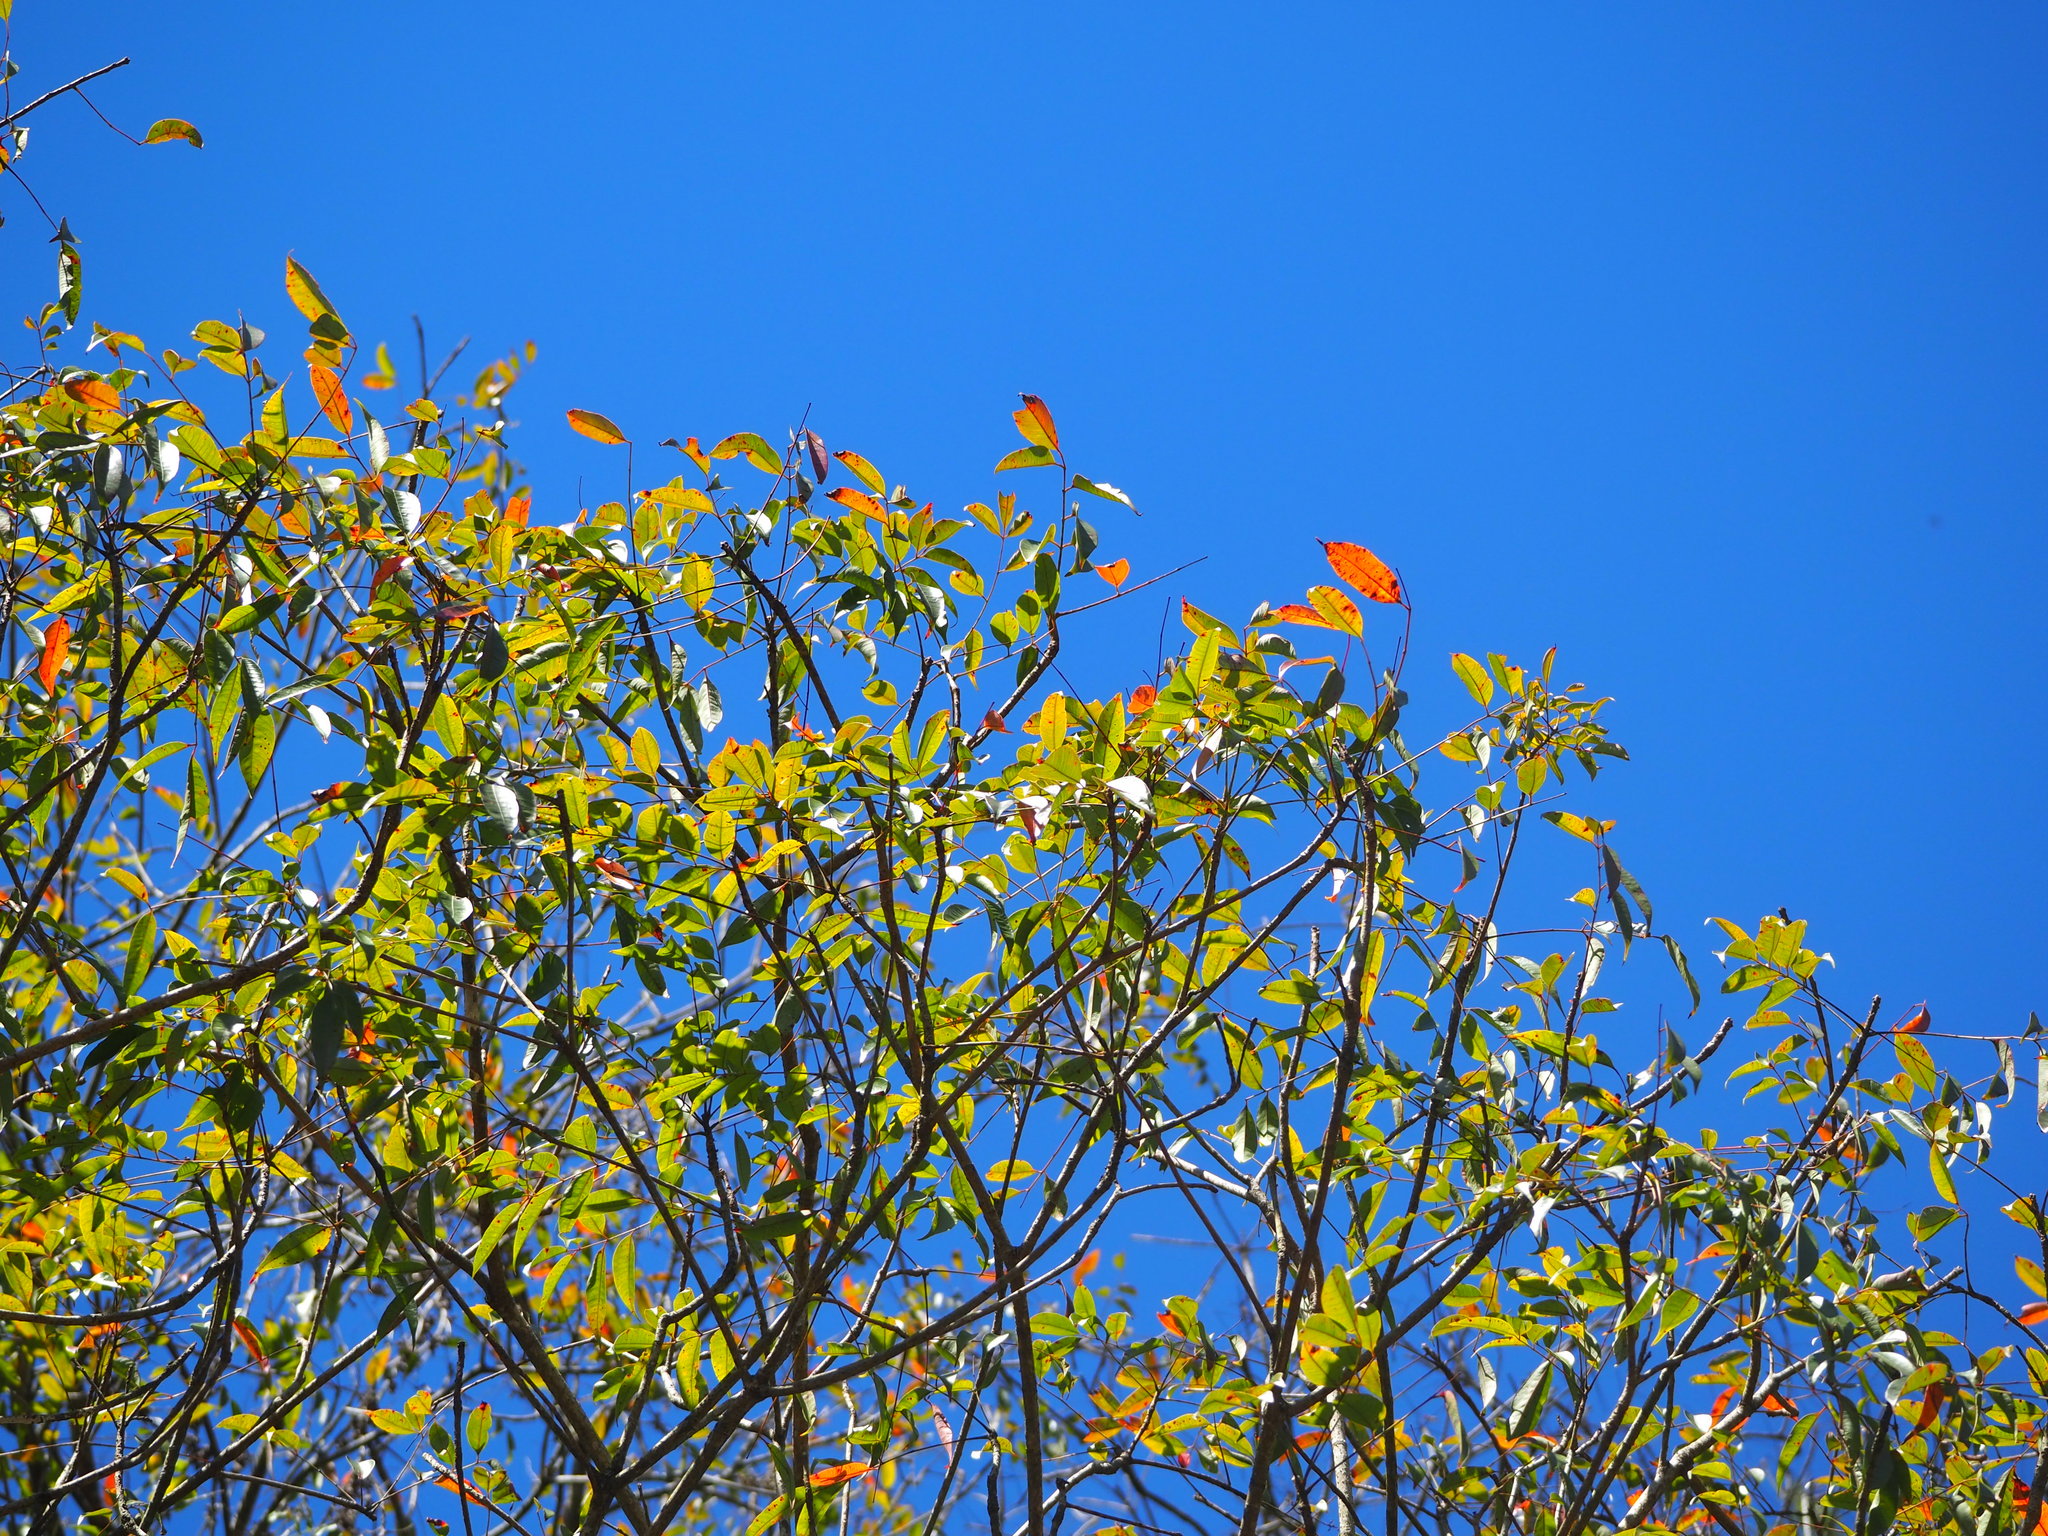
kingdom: Plantae
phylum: Tracheophyta
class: Magnoliopsida
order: Sapindales
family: Anacardiaceae
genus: Toxicodendron
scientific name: Toxicodendron succedaneum
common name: Wax tree
